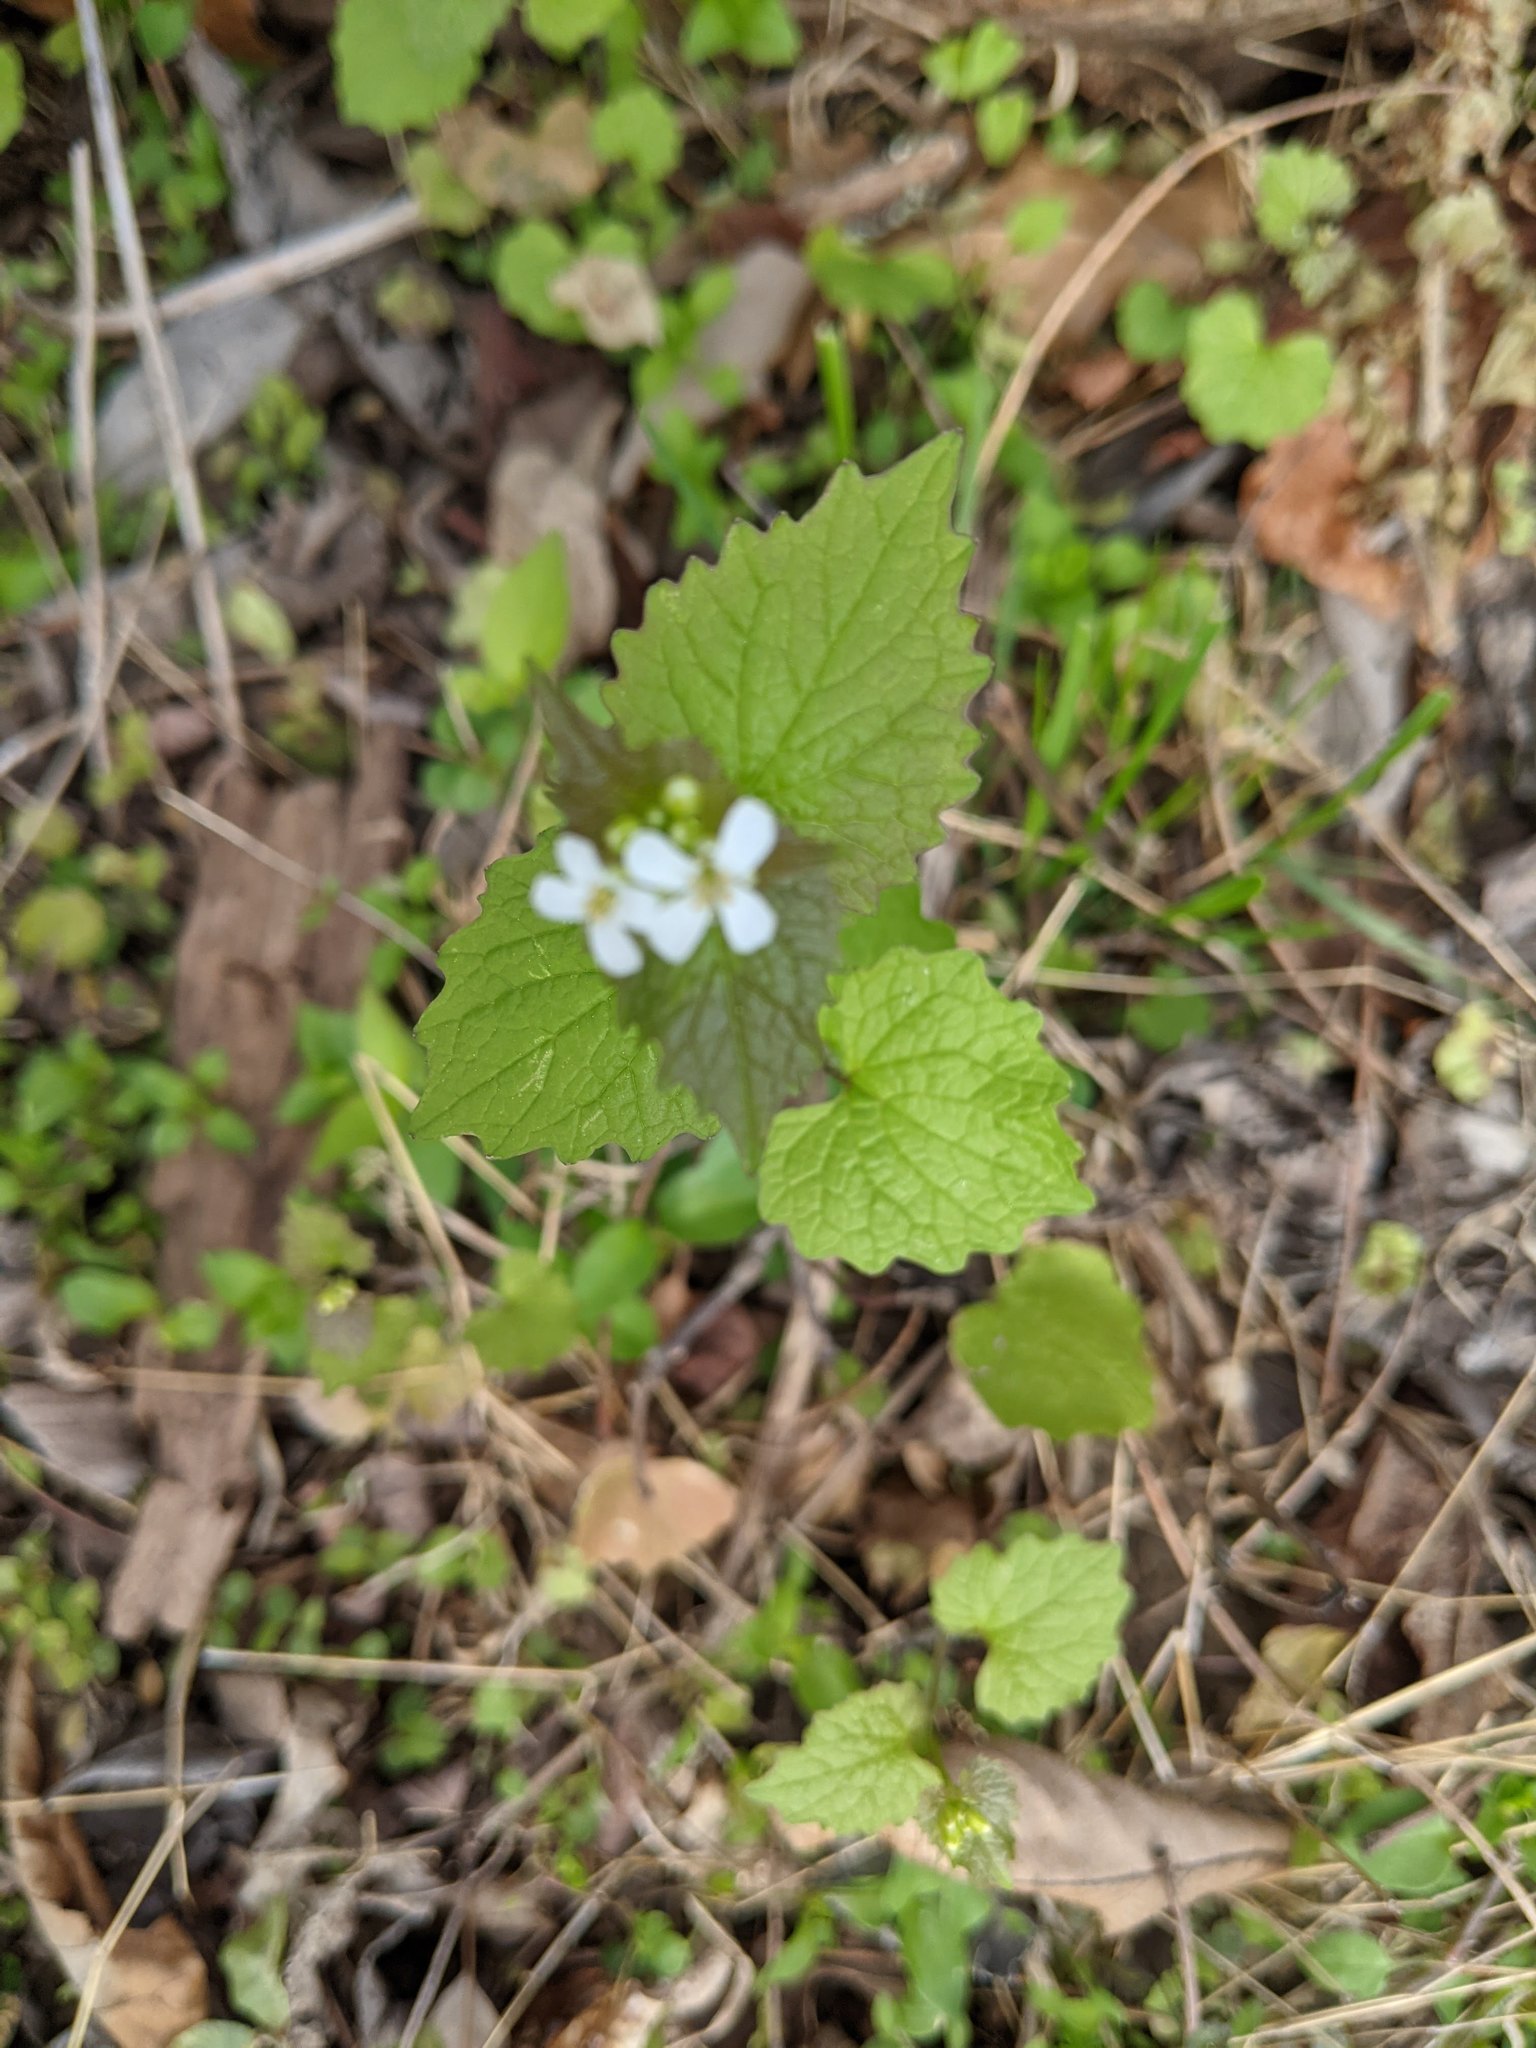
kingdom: Plantae
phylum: Tracheophyta
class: Magnoliopsida
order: Brassicales
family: Brassicaceae
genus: Alliaria
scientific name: Alliaria petiolata
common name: Garlic mustard
